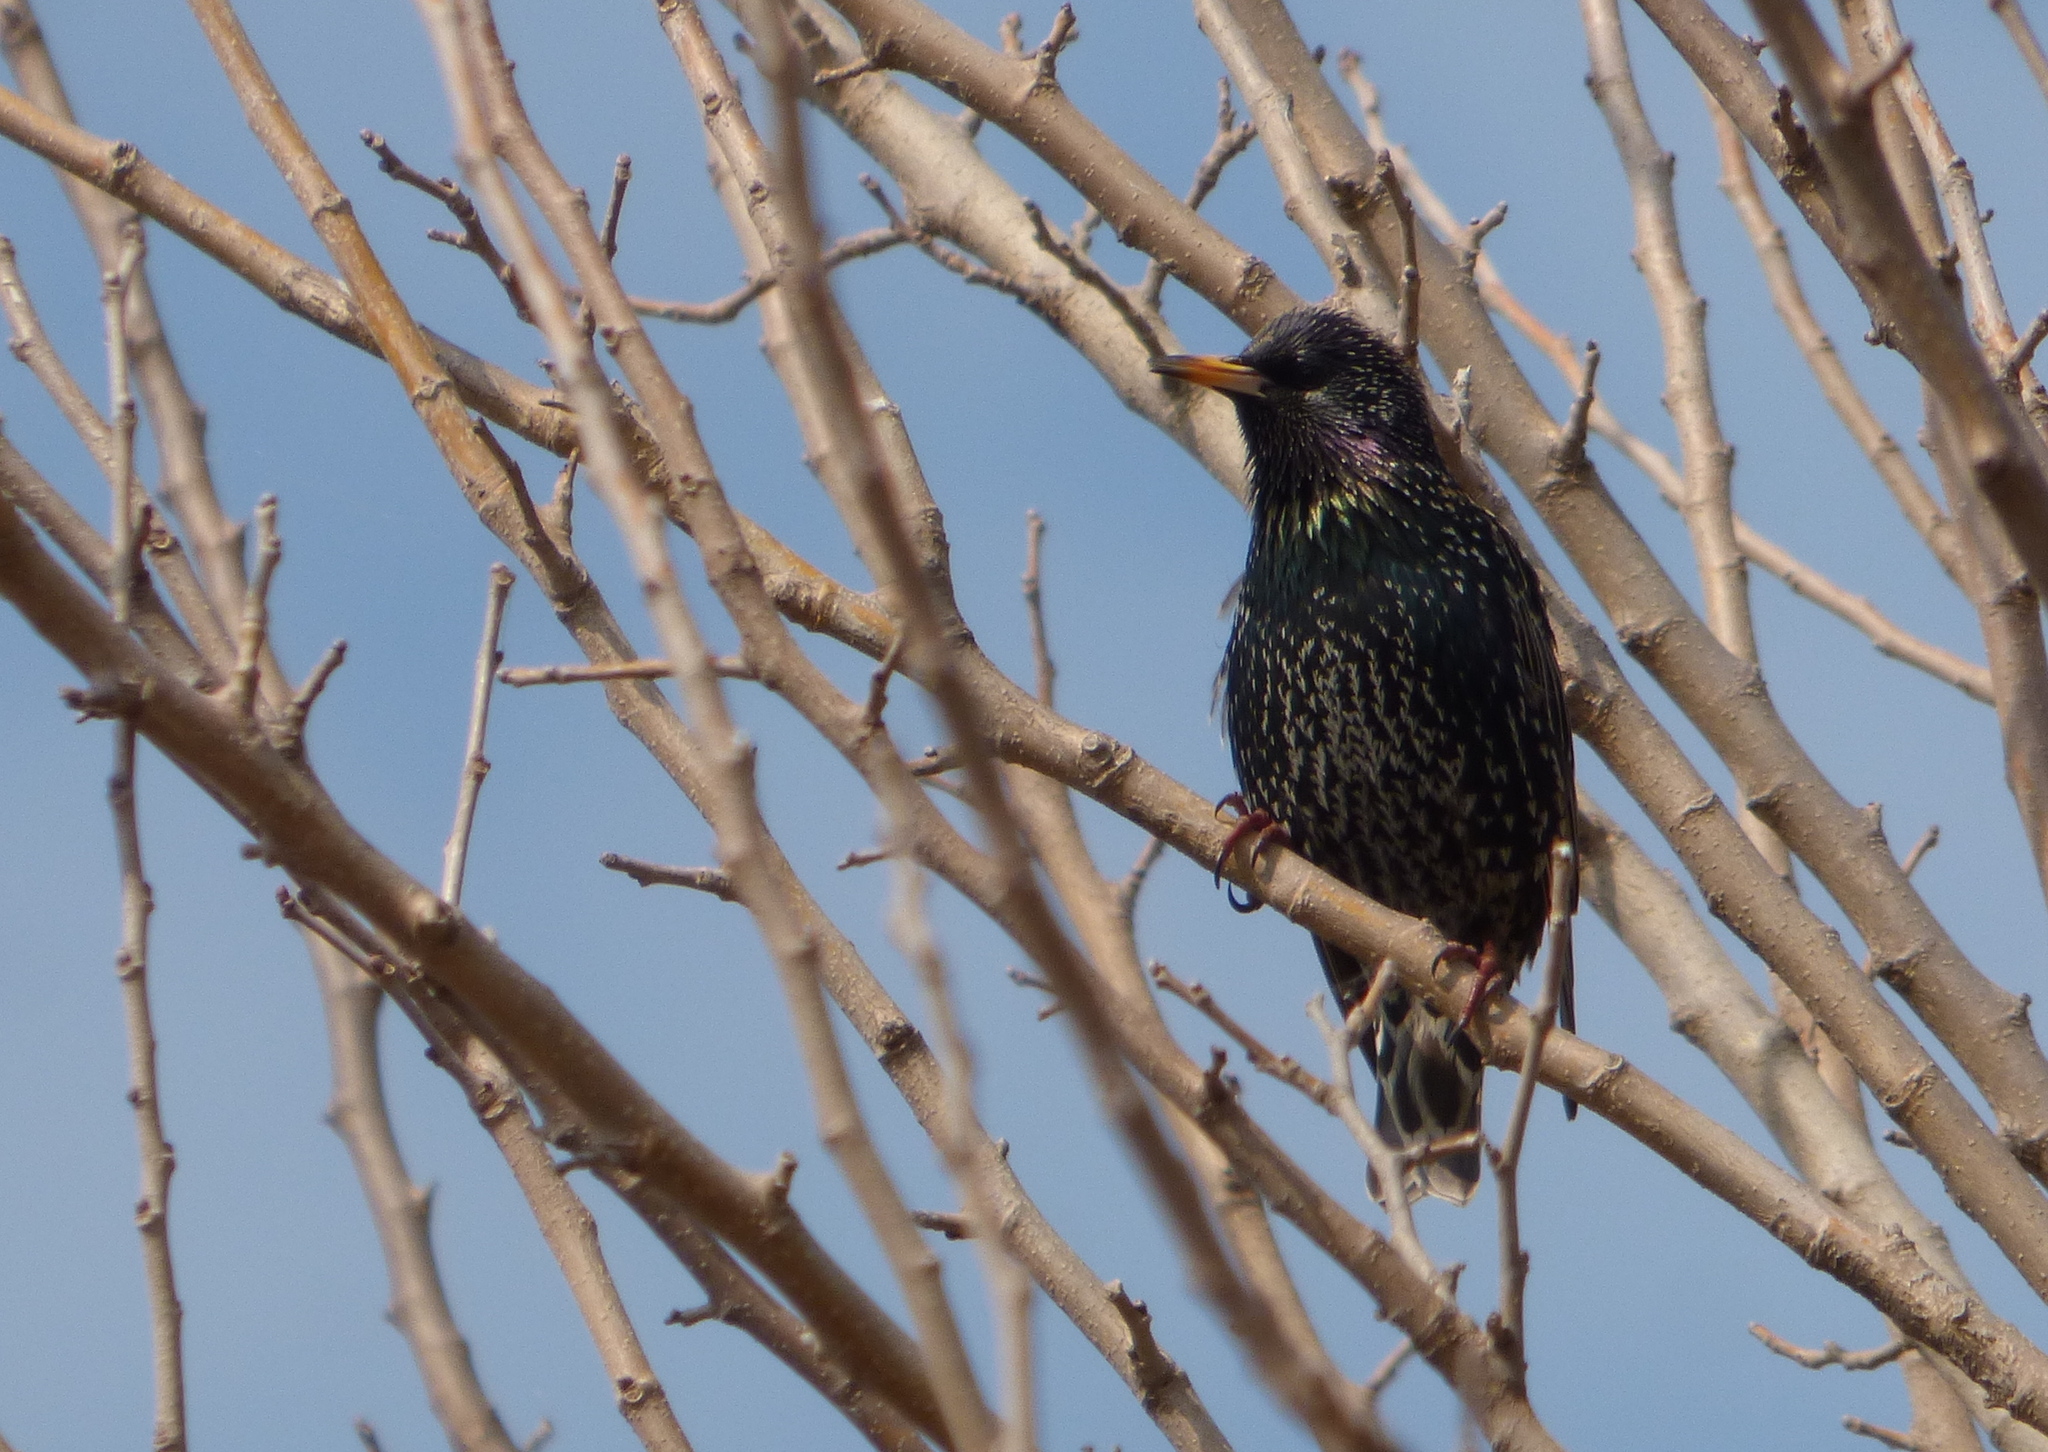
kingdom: Animalia
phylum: Chordata
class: Aves
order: Passeriformes
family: Sturnidae
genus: Sturnus
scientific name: Sturnus vulgaris
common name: Common starling
